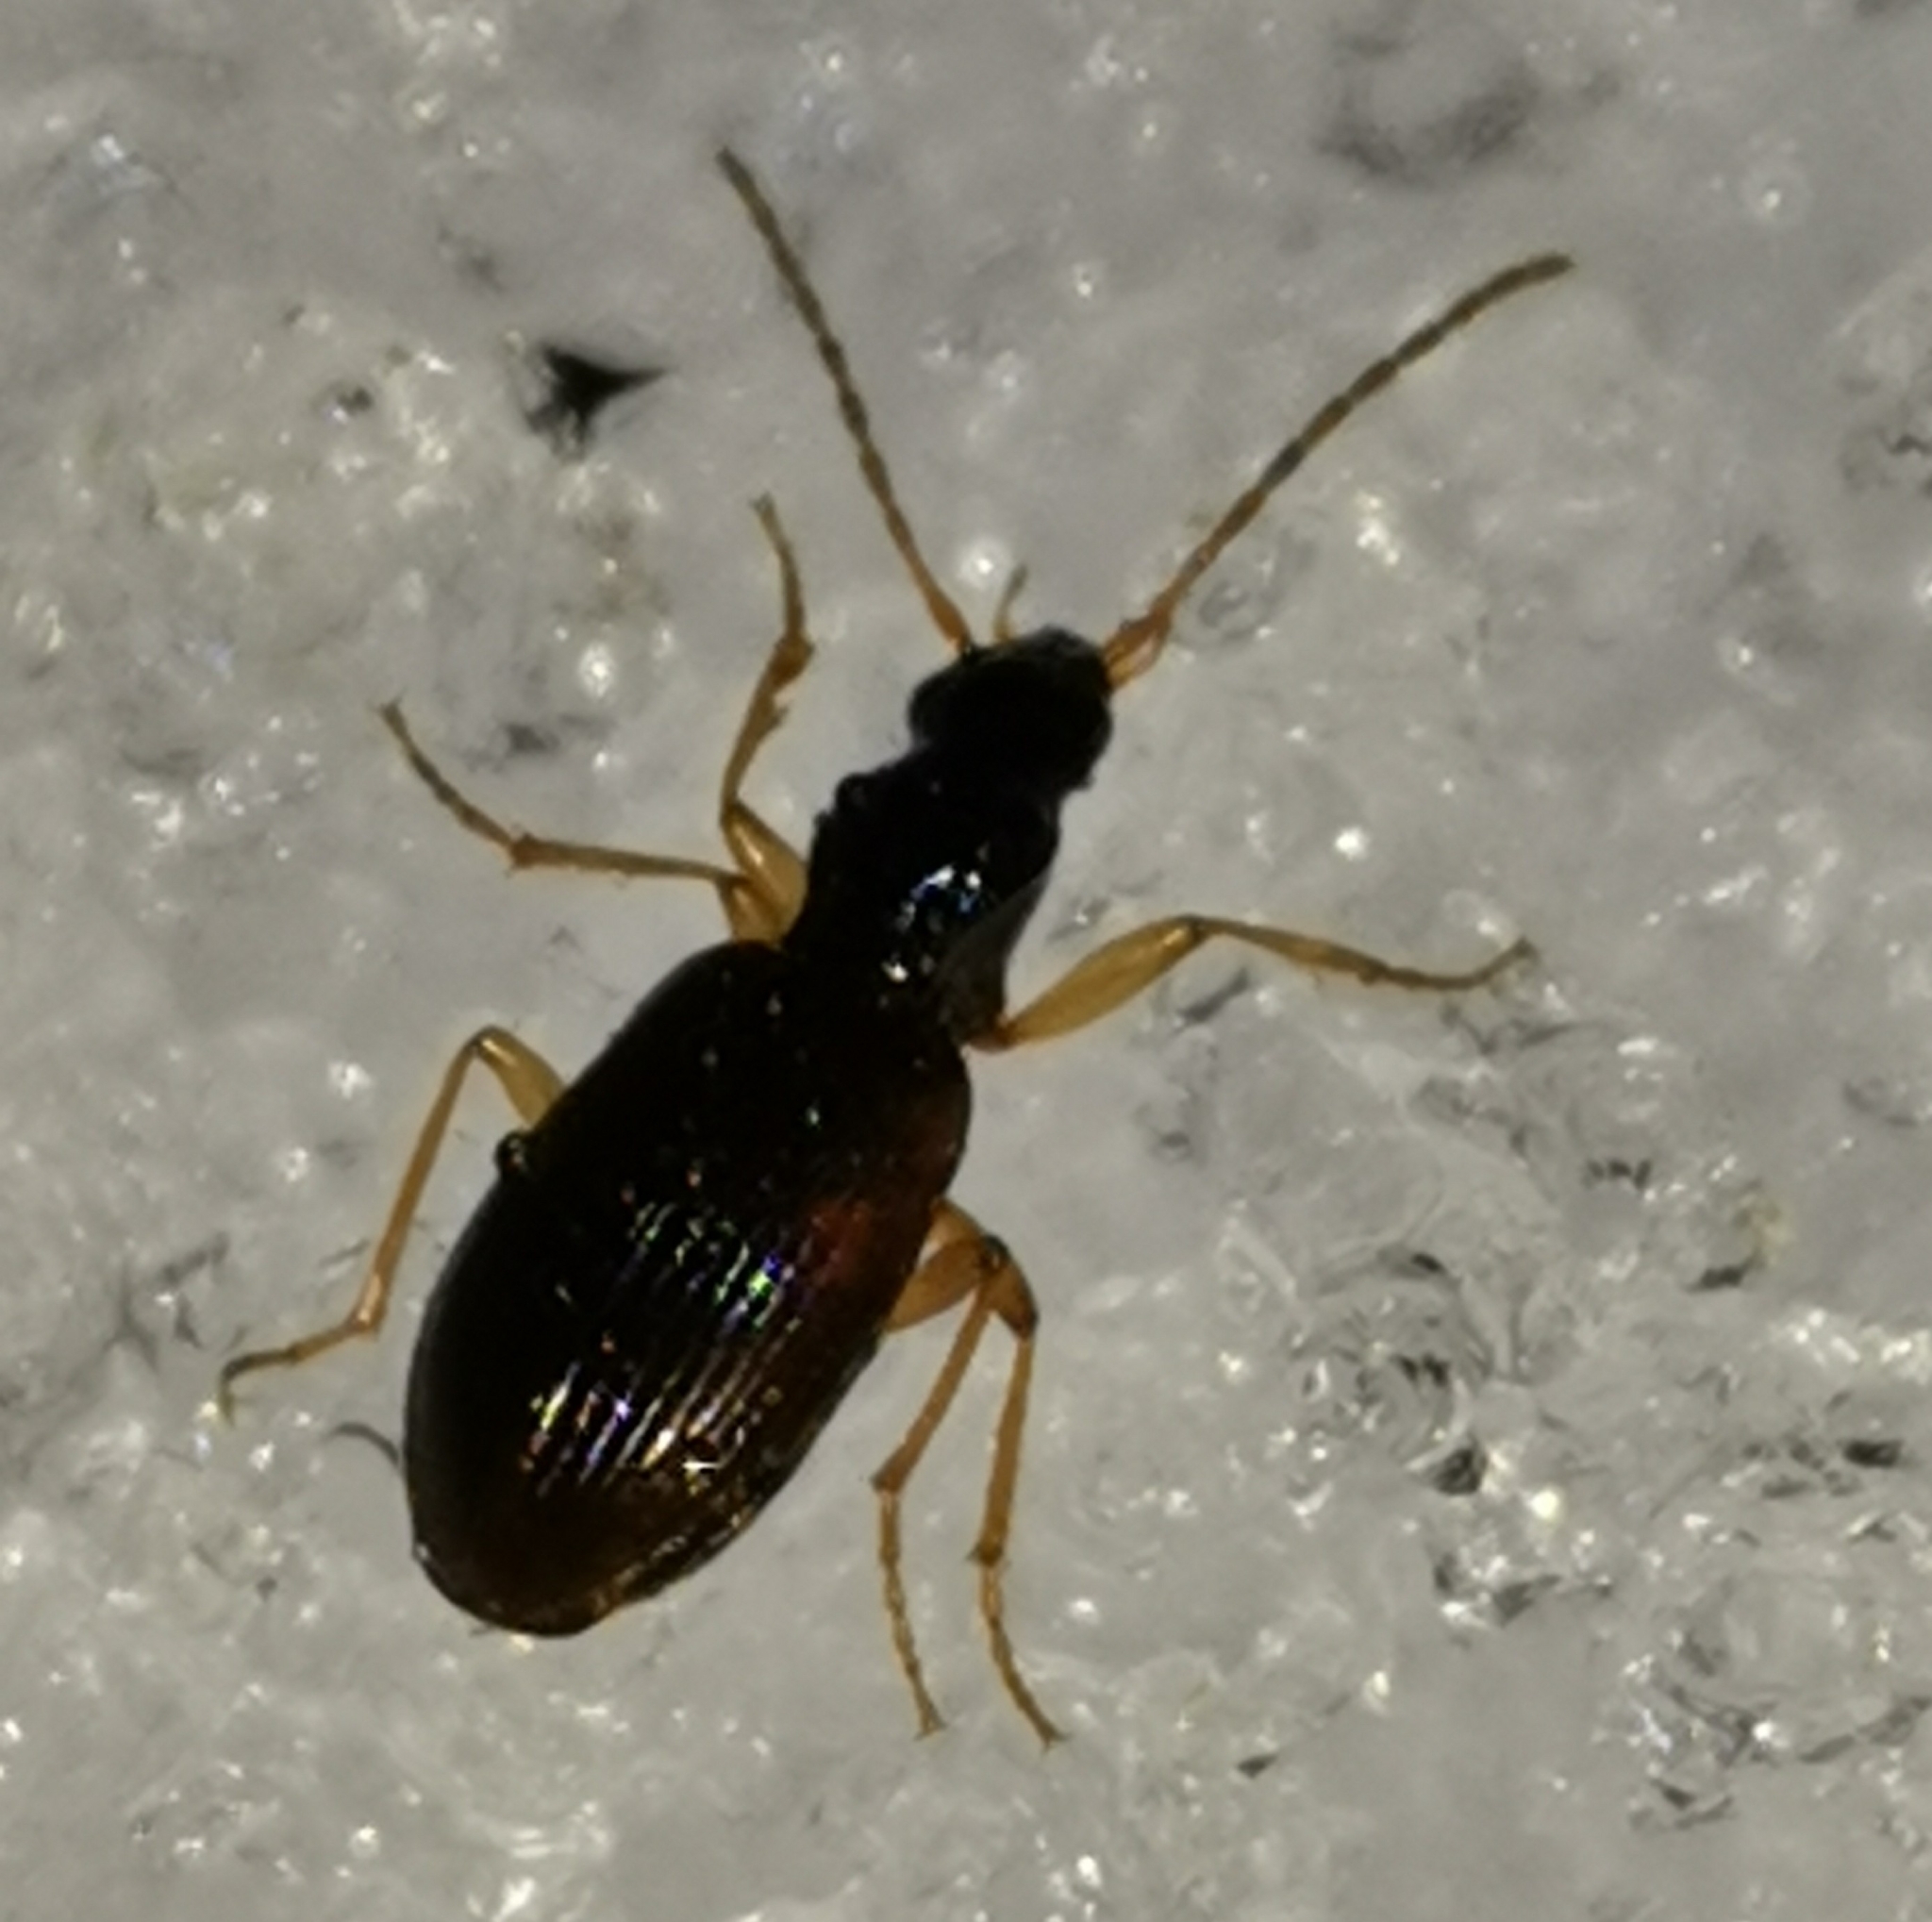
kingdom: Animalia
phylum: Arthropoda
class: Insecta
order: Coleoptera
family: Carabidae
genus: Oxypselaphus
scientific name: Oxypselaphus obscurus
